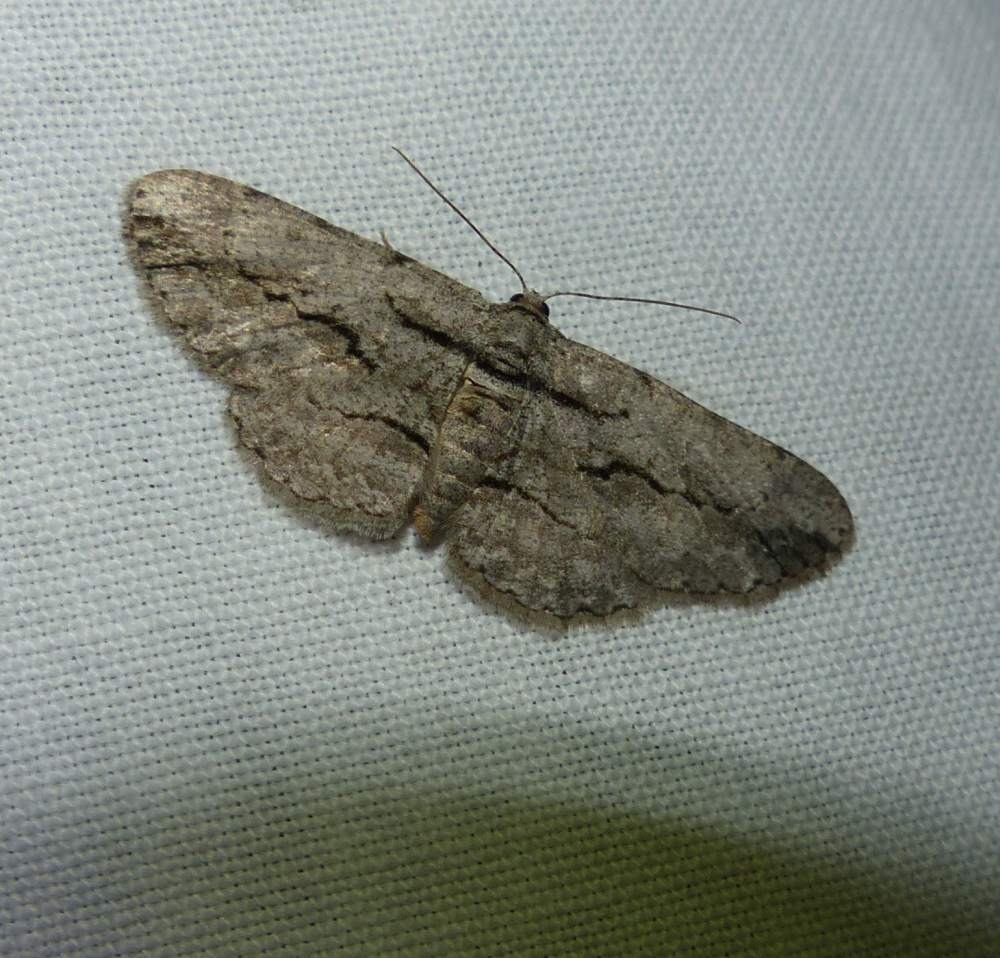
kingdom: Animalia
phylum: Arthropoda
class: Insecta
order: Lepidoptera
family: Geometridae
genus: Anavitrinella
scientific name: Anavitrinella pampinaria
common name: Common gray
